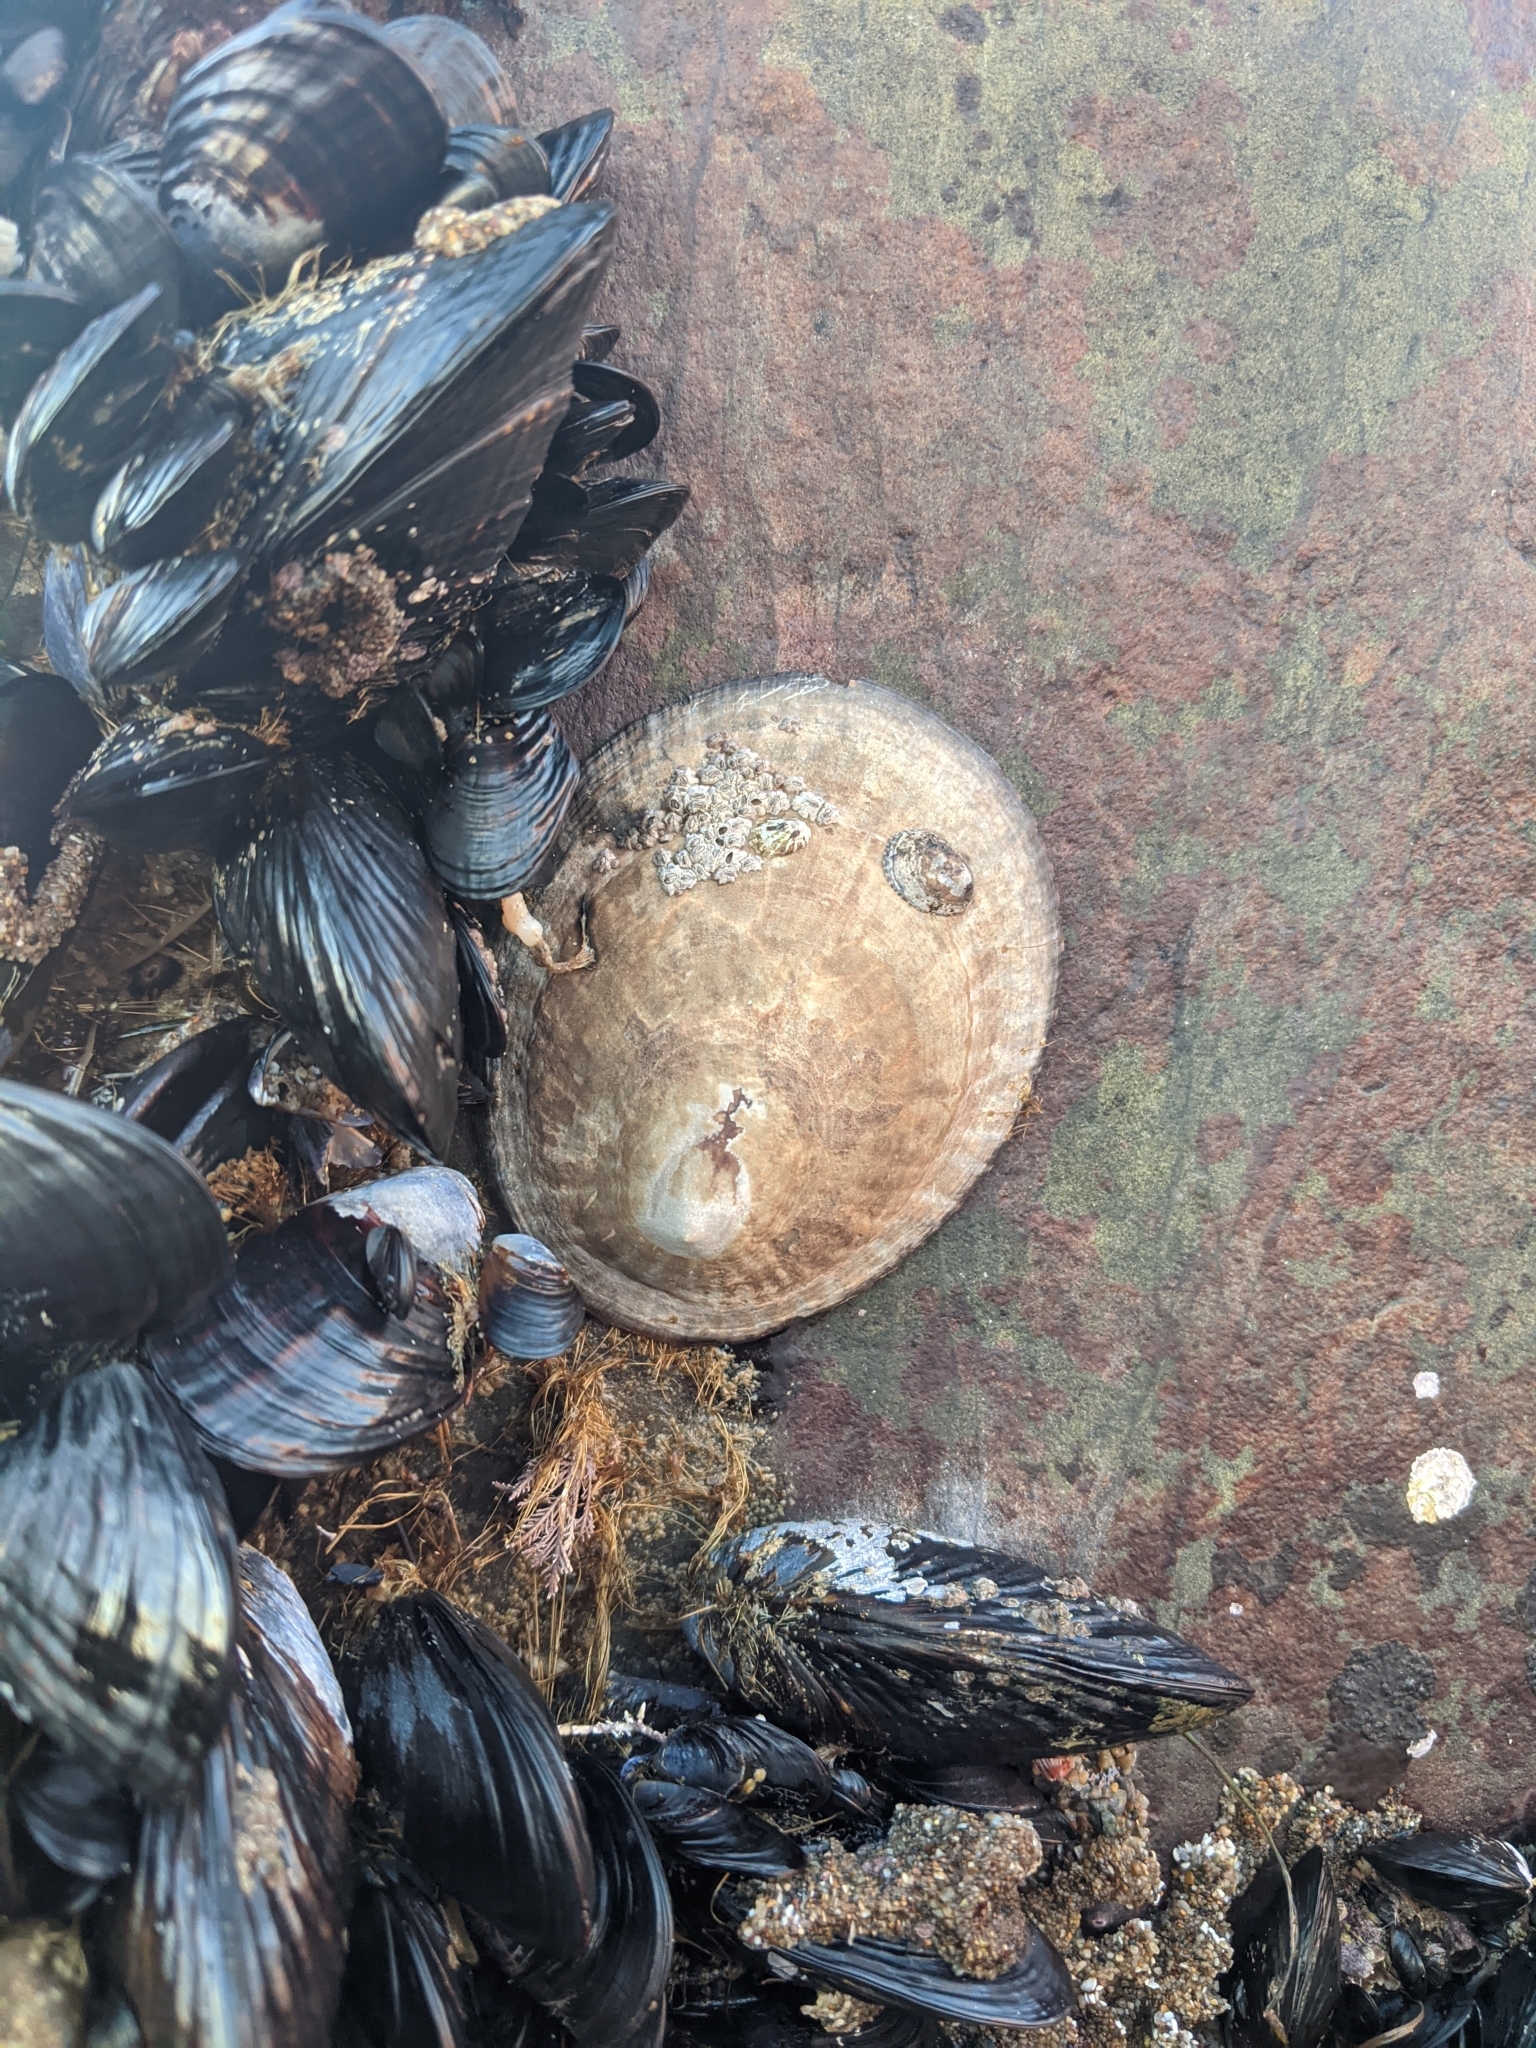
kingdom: Animalia
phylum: Mollusca
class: Gastropoda
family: Lottiidae
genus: Lottia
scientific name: Lottia gigantea
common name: Owl limpet
